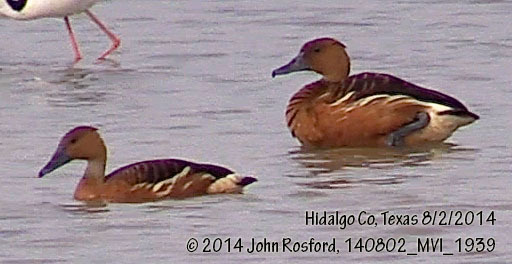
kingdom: Animalia
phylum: Chordata
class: Aves
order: Anseriformes
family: Anatidae
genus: Dendrocygna
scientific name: Dendrocygna bicolor
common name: Fulvous whistling duck
